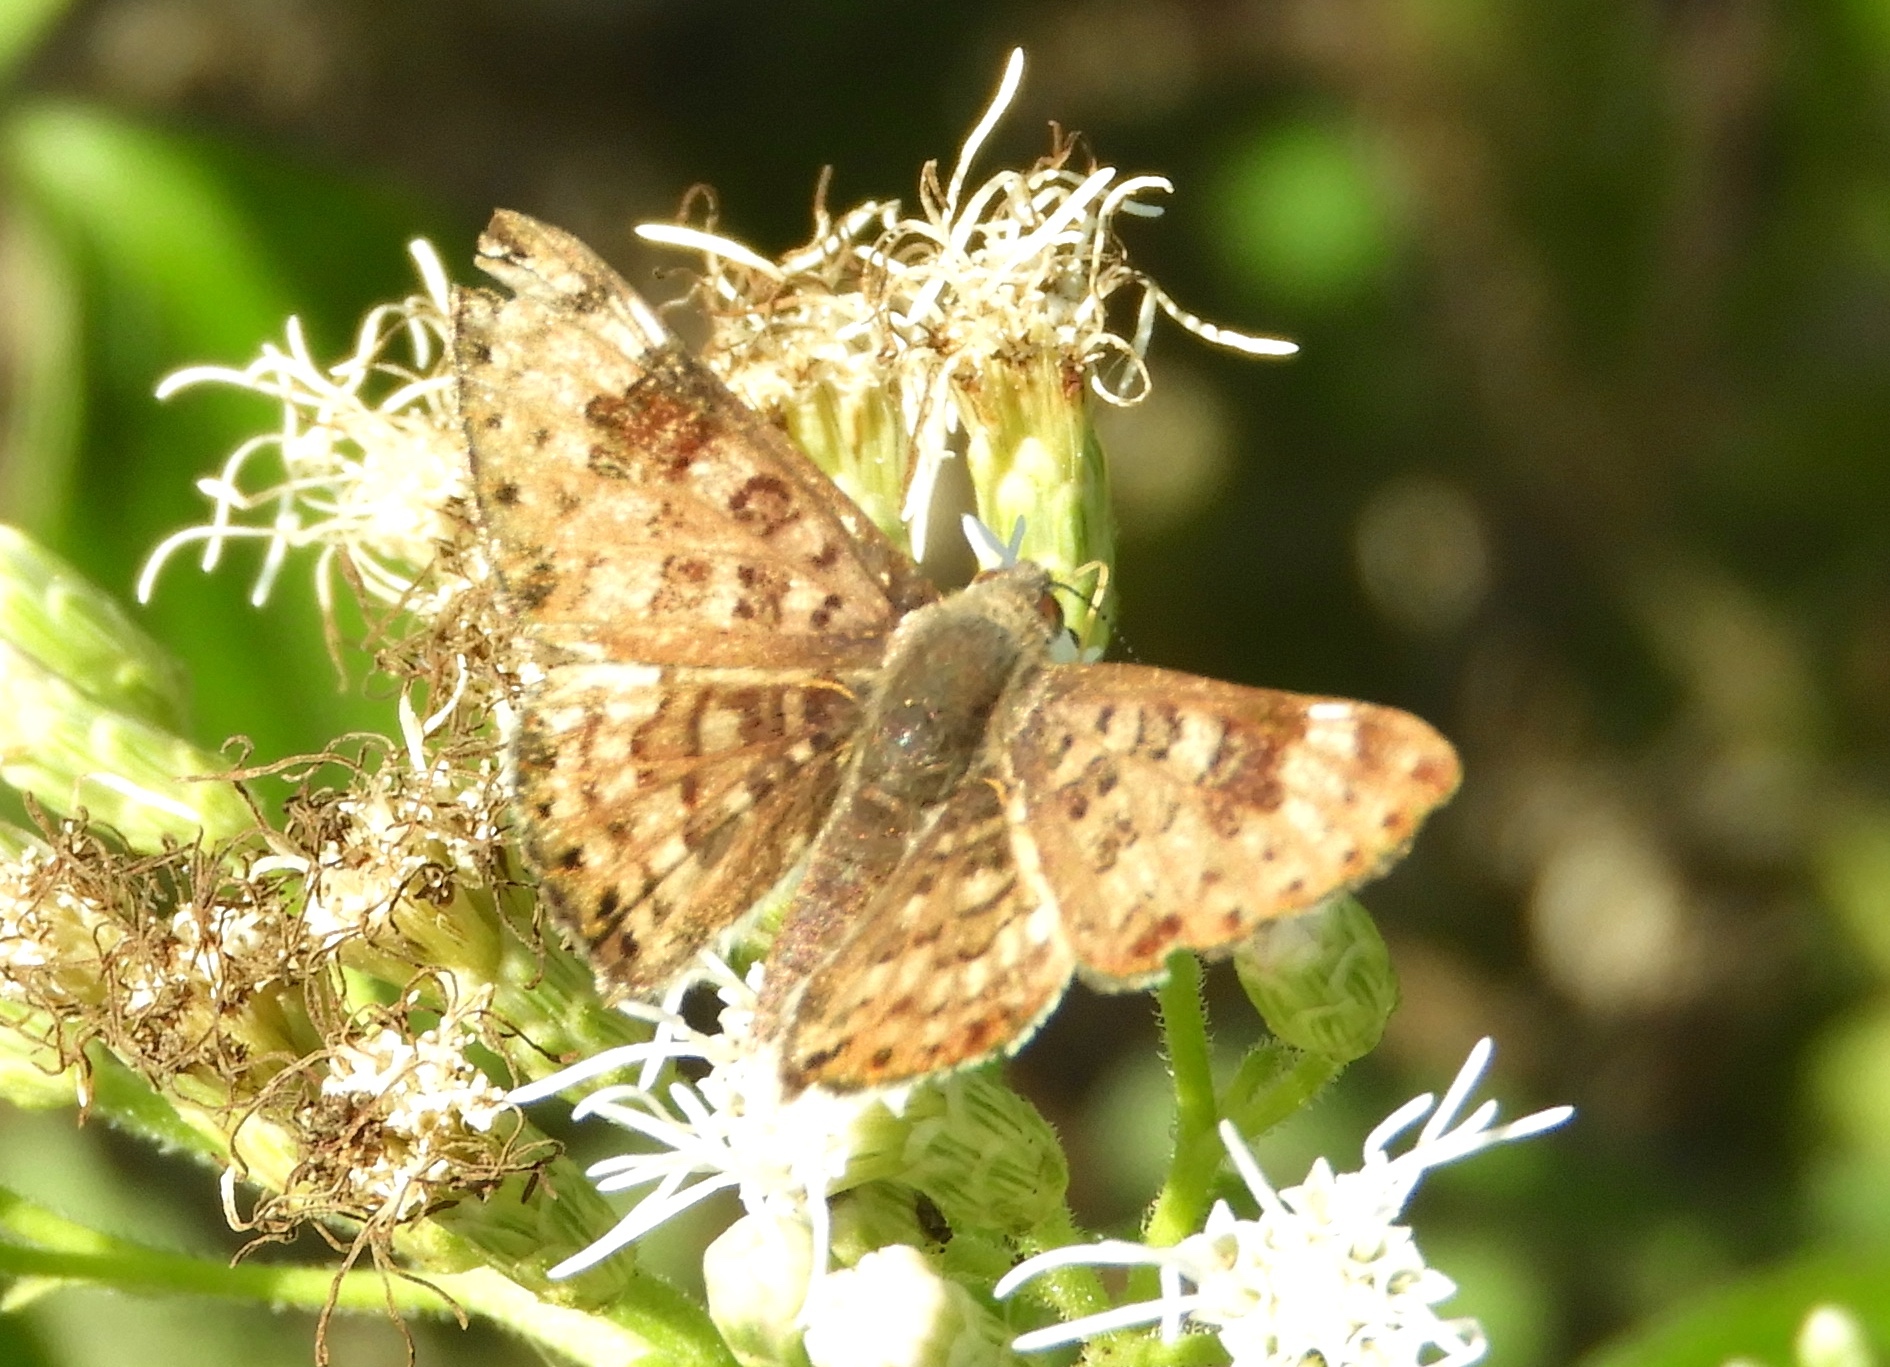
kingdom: Animalia
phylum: Arthropoda
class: Insecta
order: Lepidoptera
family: Riodinidae
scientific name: Riodinidae
